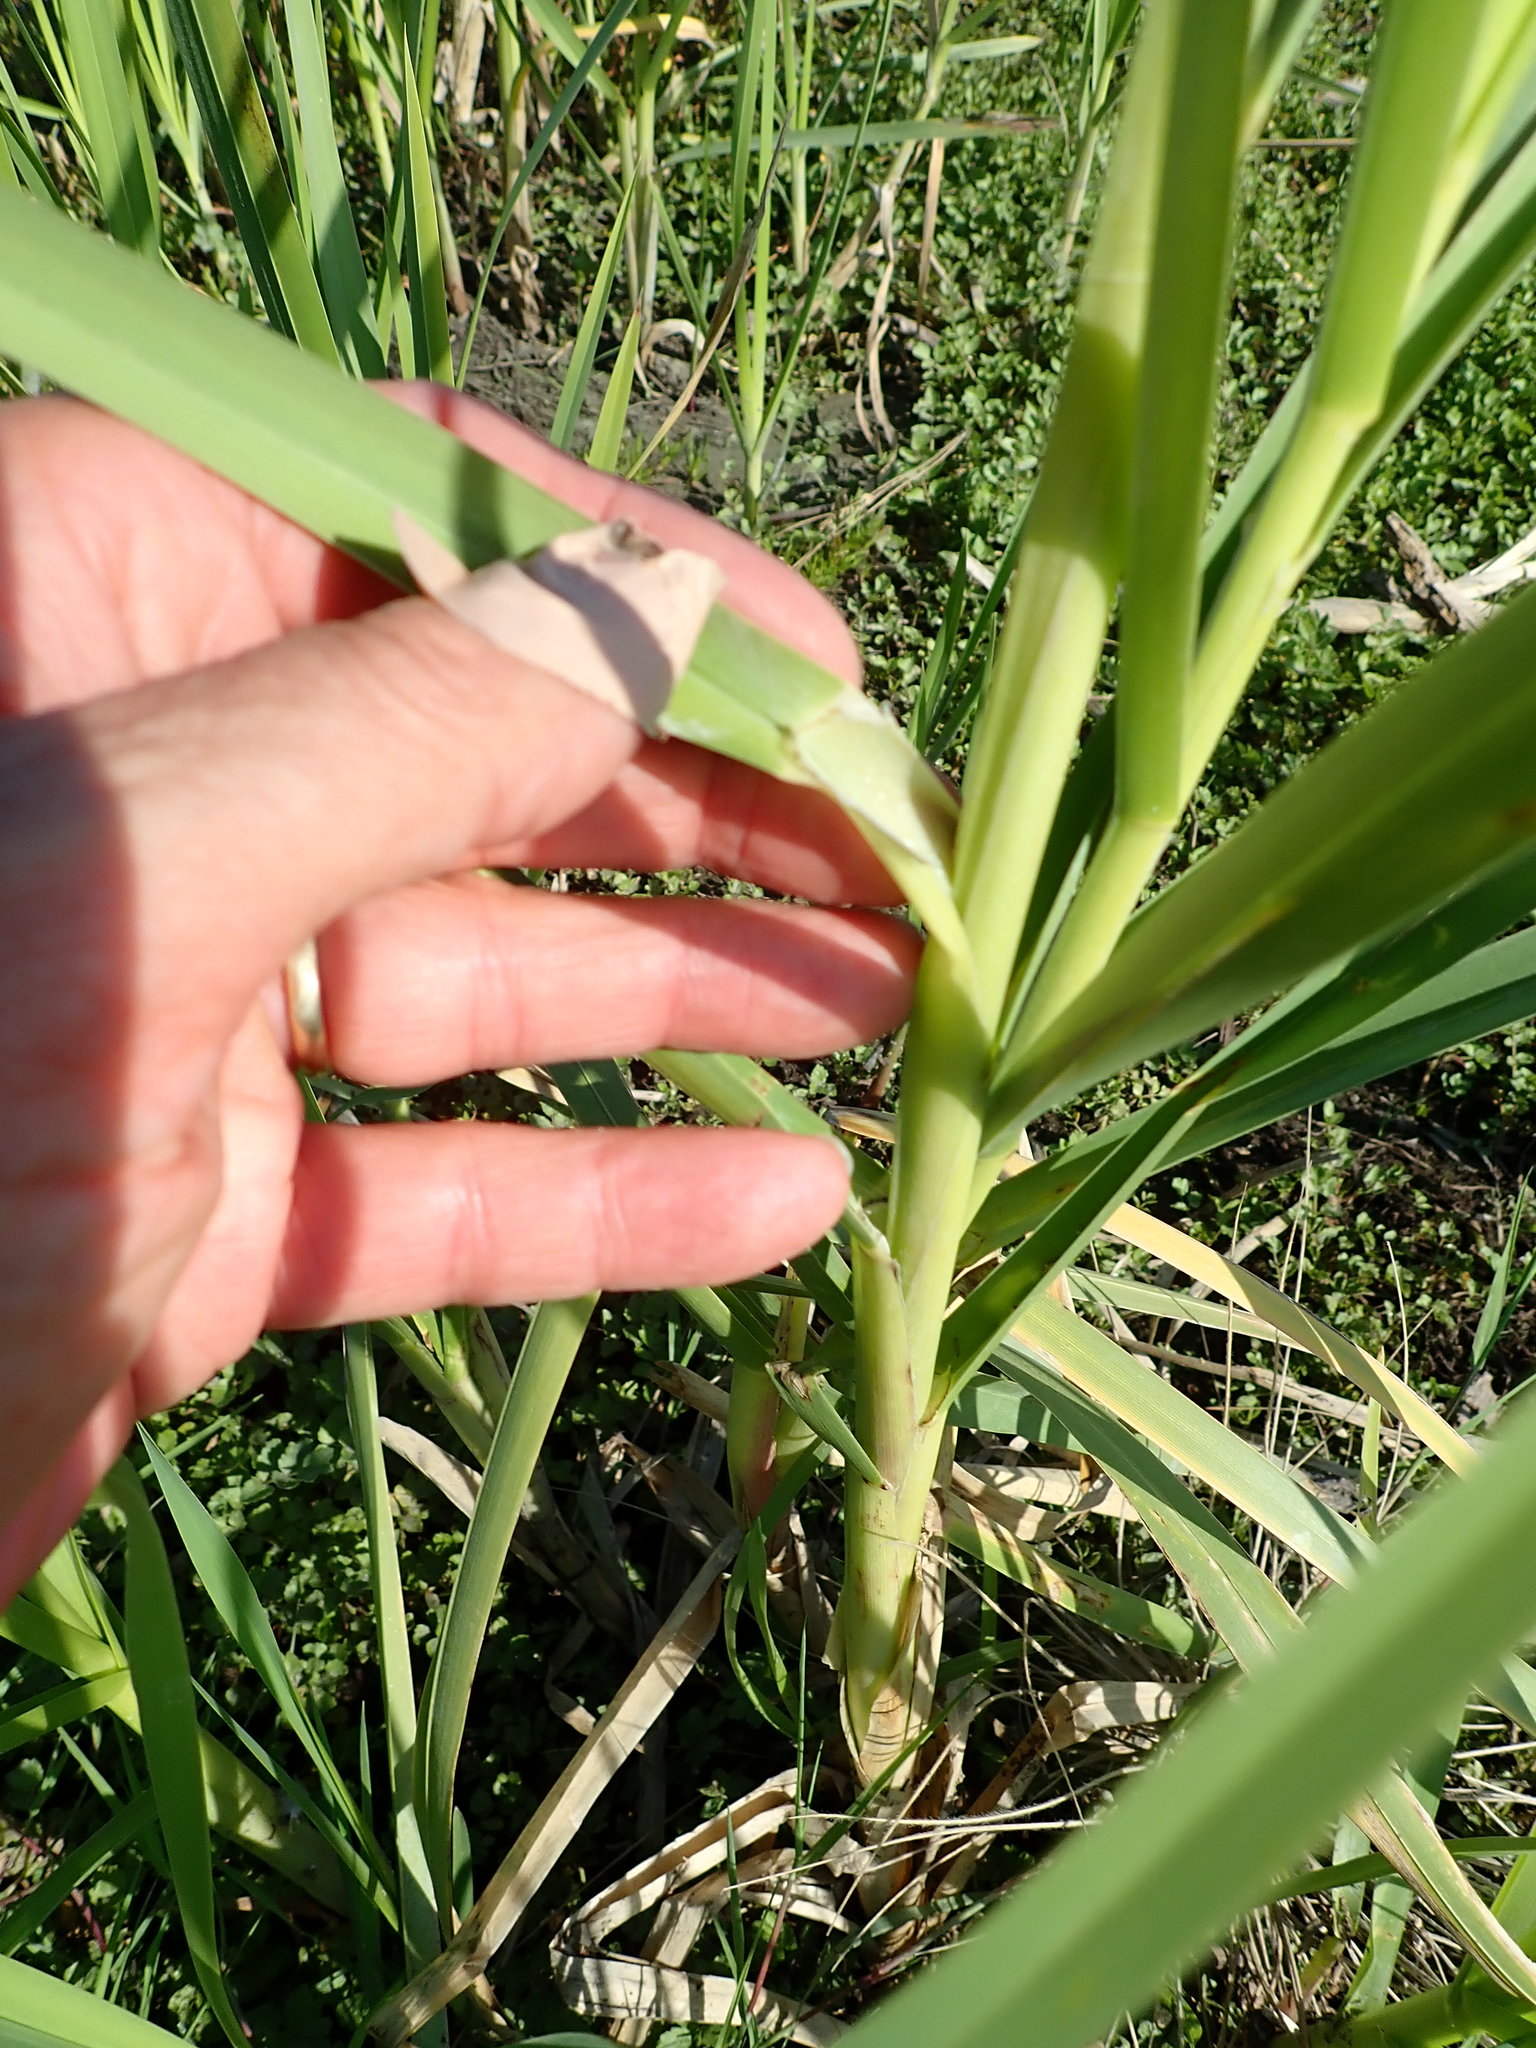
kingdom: Plantae
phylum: Tracheophyta
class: Liliopsida
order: Poales
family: Poaceae
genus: Glyceria
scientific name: Glyceria maxima
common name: Reed mannagrass
